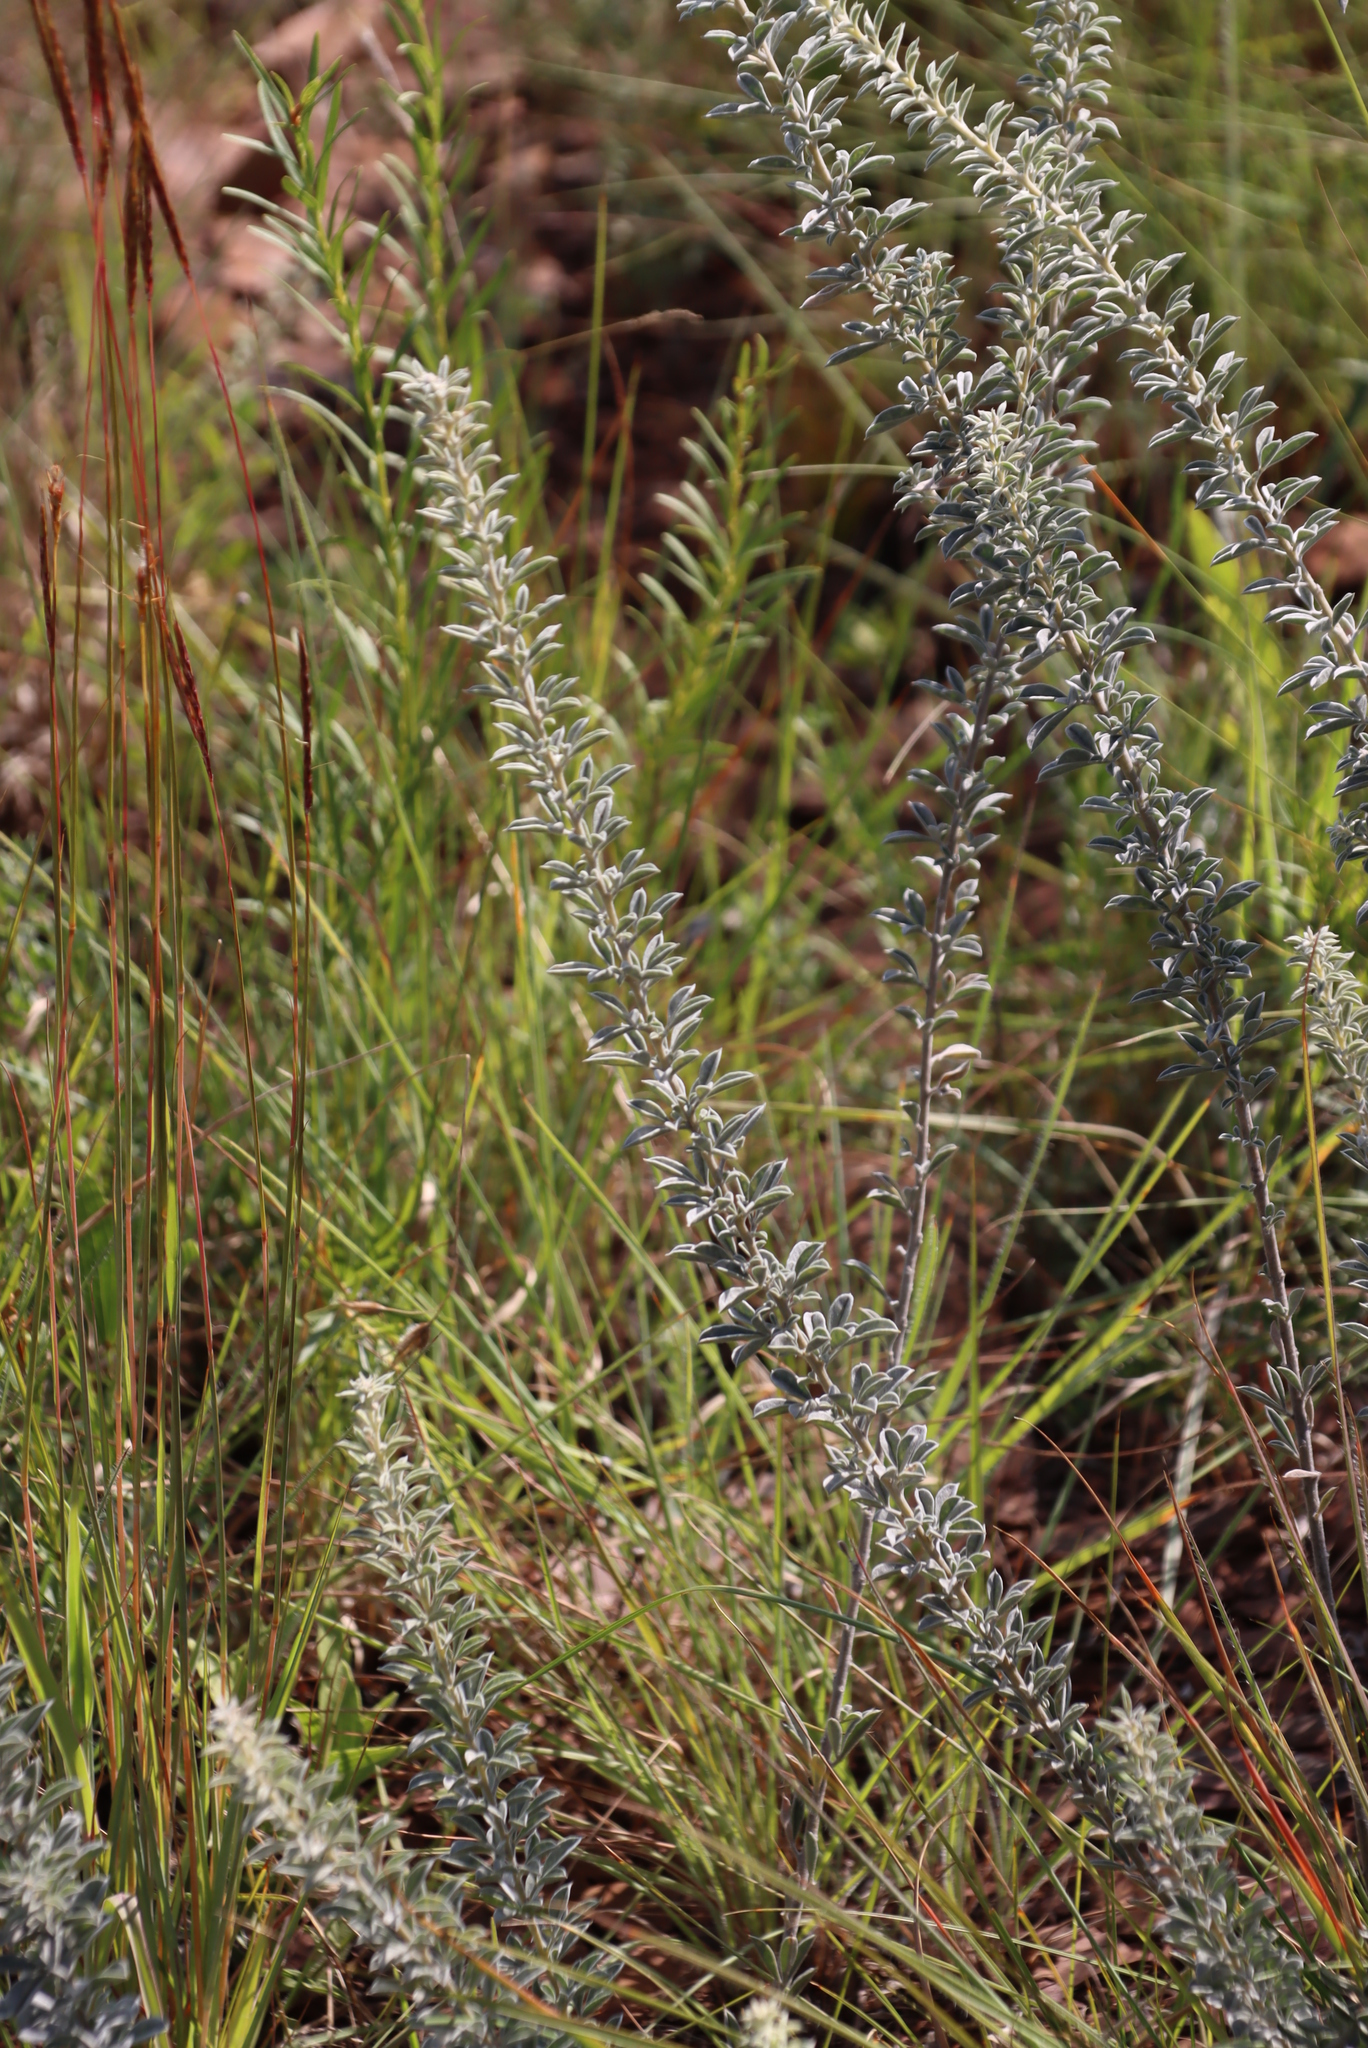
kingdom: Plantae
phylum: Tracheophyta
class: Magnoliopsida
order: Fabales
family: Fabaceae
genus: Pearsonia
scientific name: Pearsonia sessilifolia
